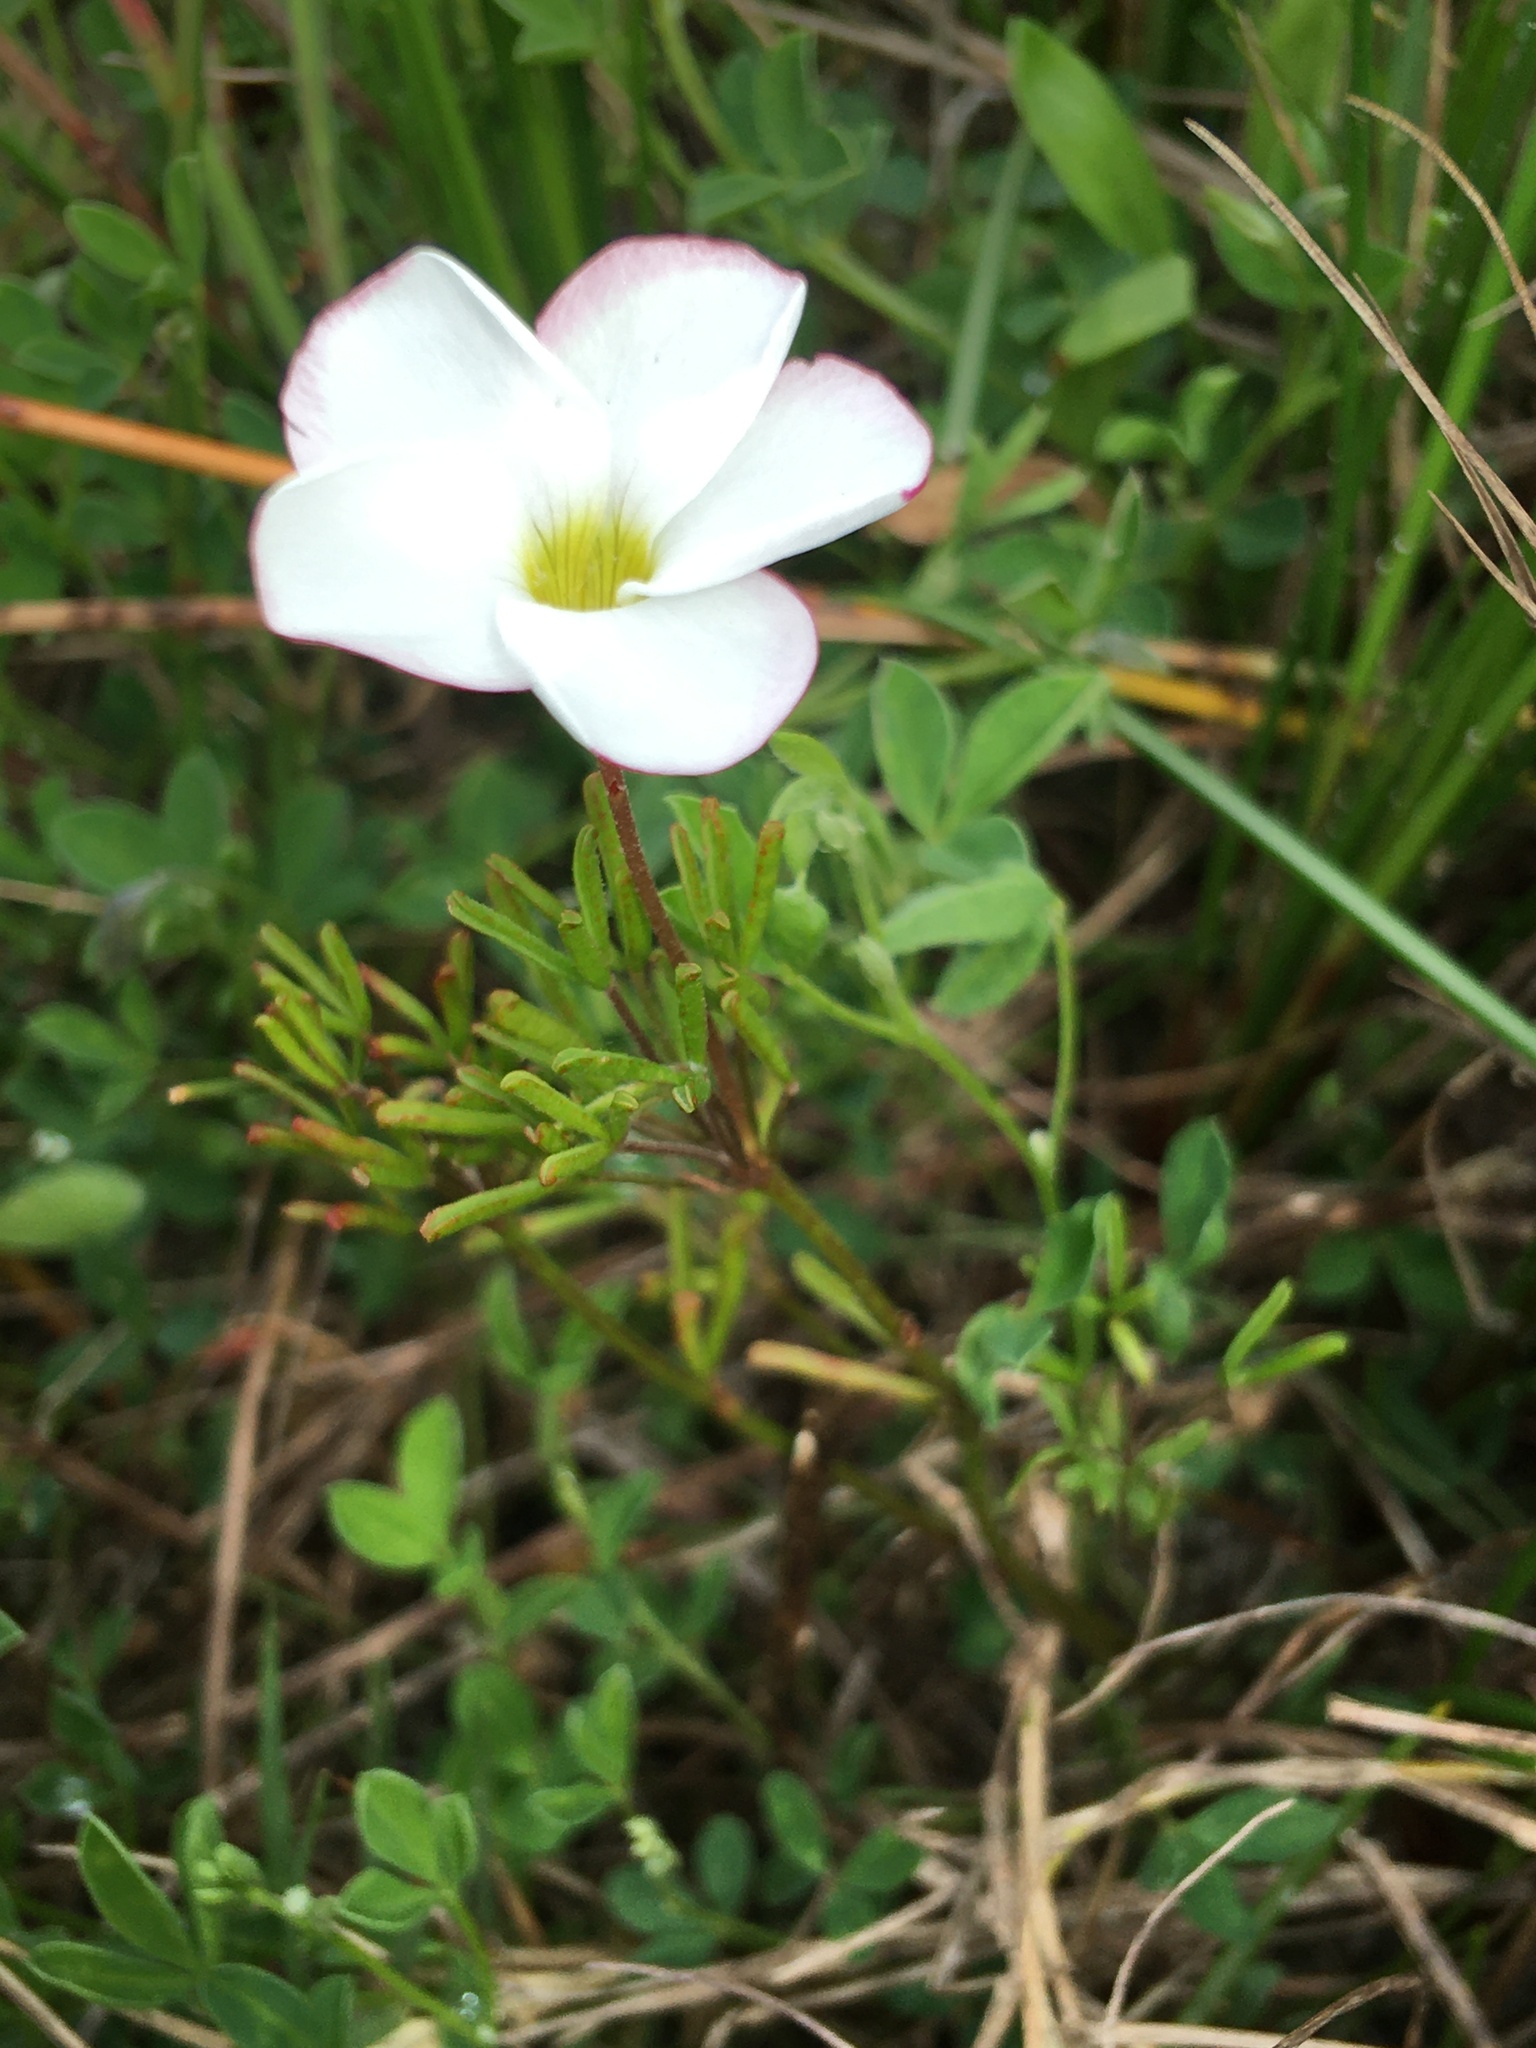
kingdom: Plantae
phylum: Tracheophyta
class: Magnoliopsida
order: Oxalidales
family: Oxalidaceae
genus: Oxalis
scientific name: Oxalis versicolor
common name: Peppermint rock oxalis
